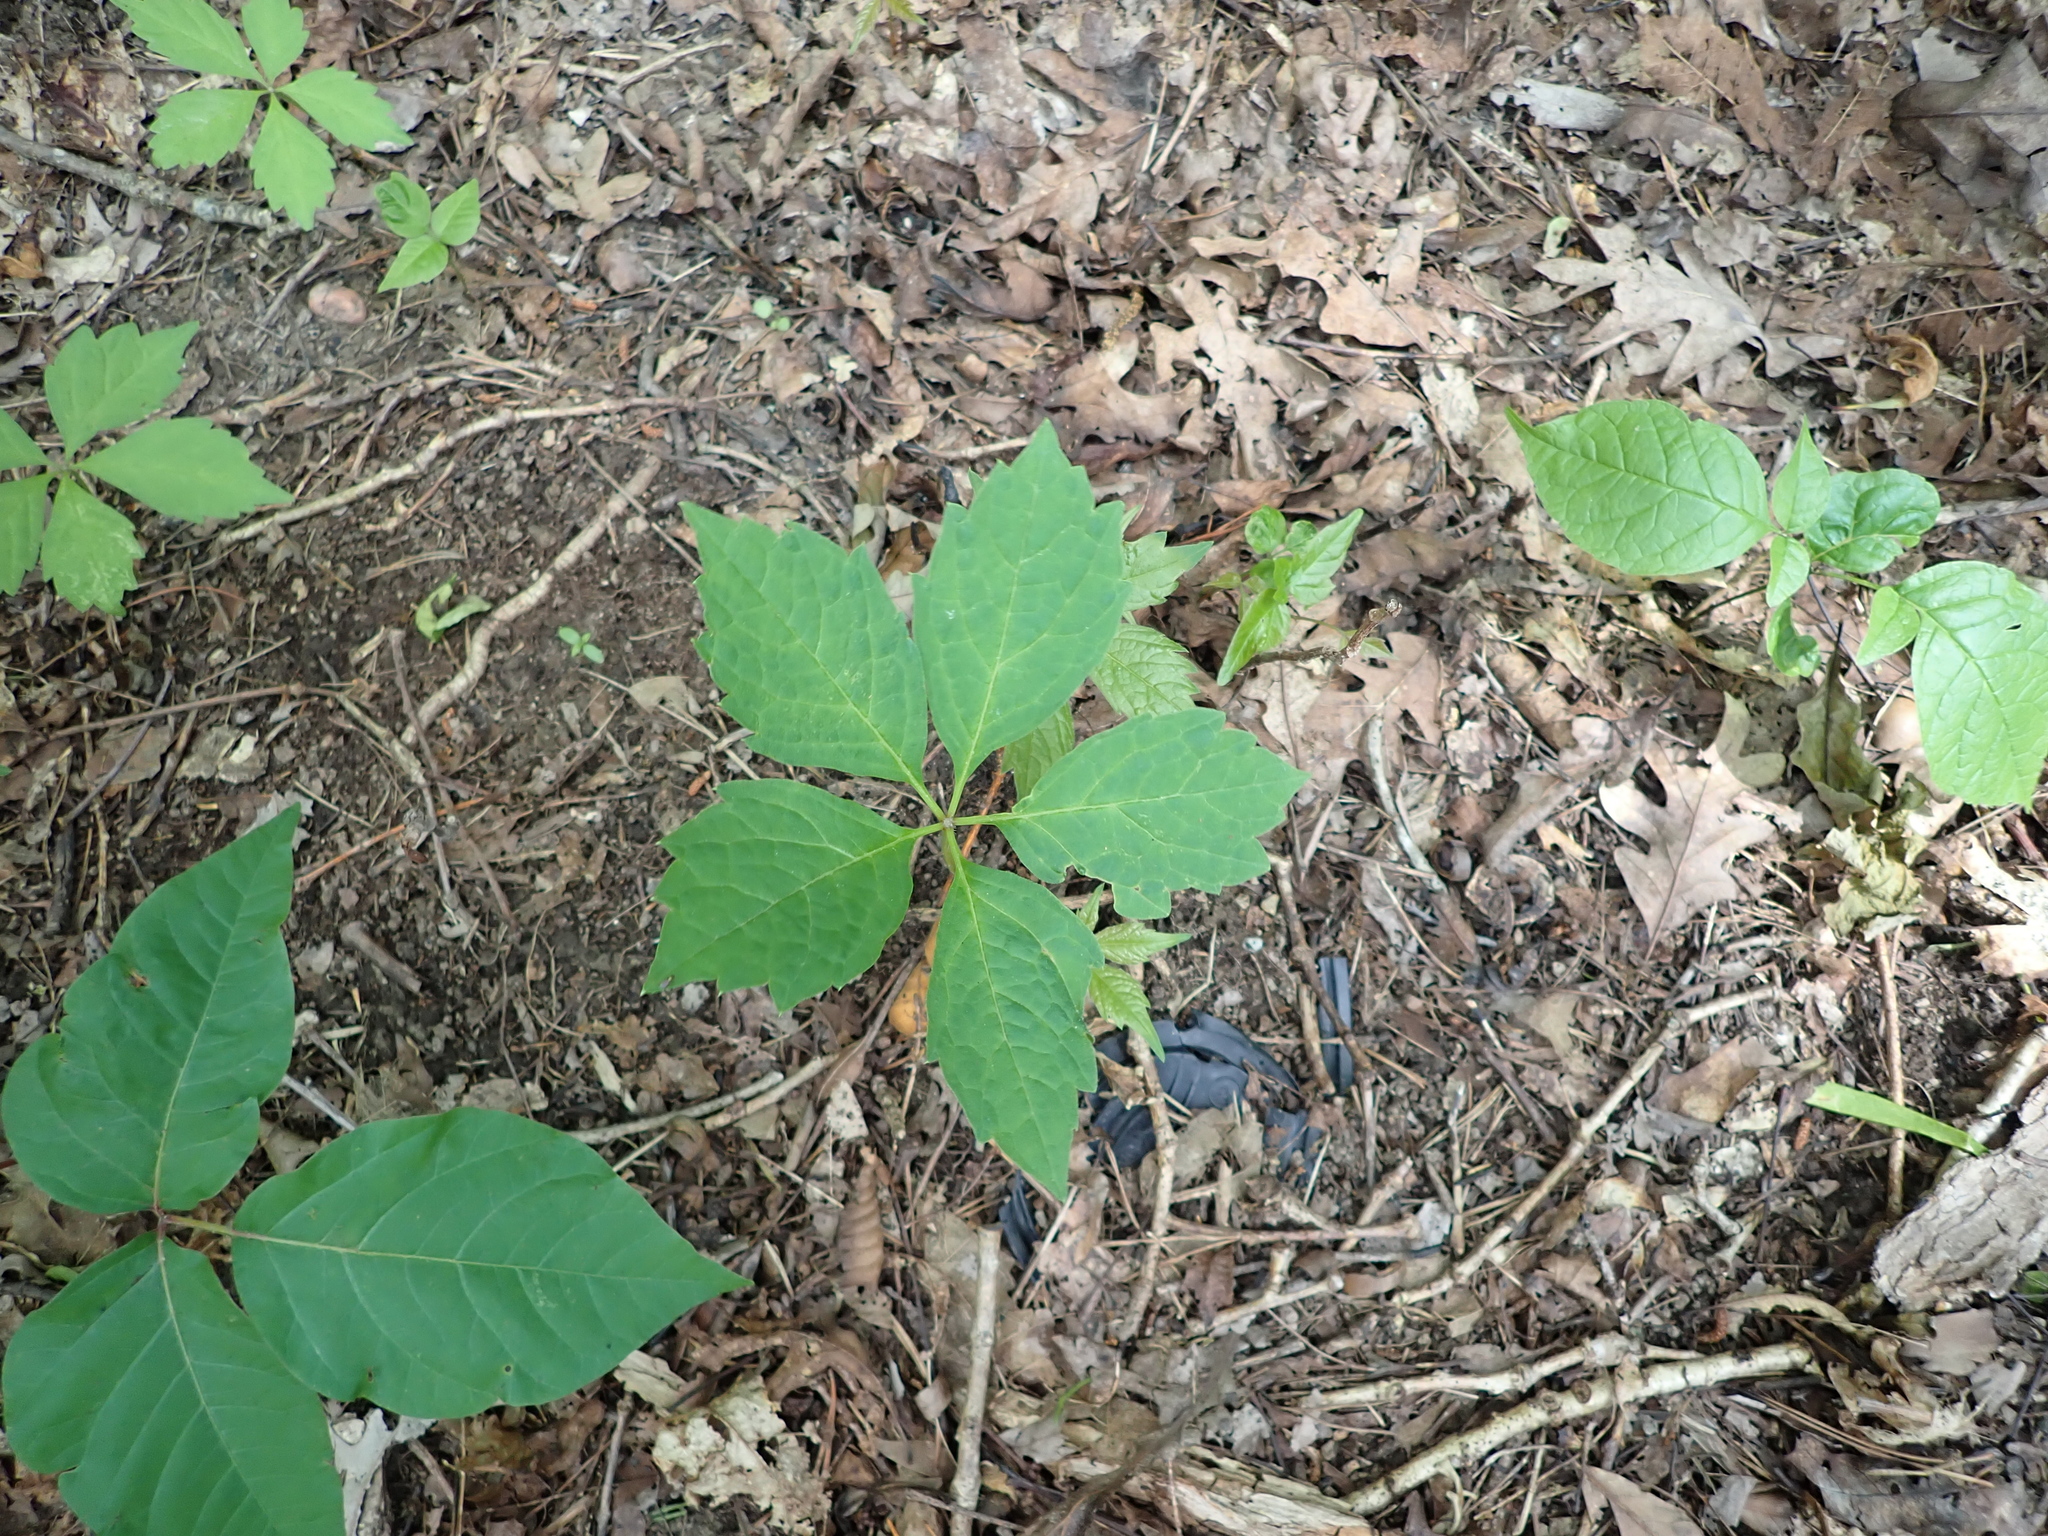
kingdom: Plantae
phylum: Tracheophyta
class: Magnoliopsida
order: Vitales
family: Vitaceae
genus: Parthenocissus
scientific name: Parthenocissus quinquefolia
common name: Virginia-creeper
